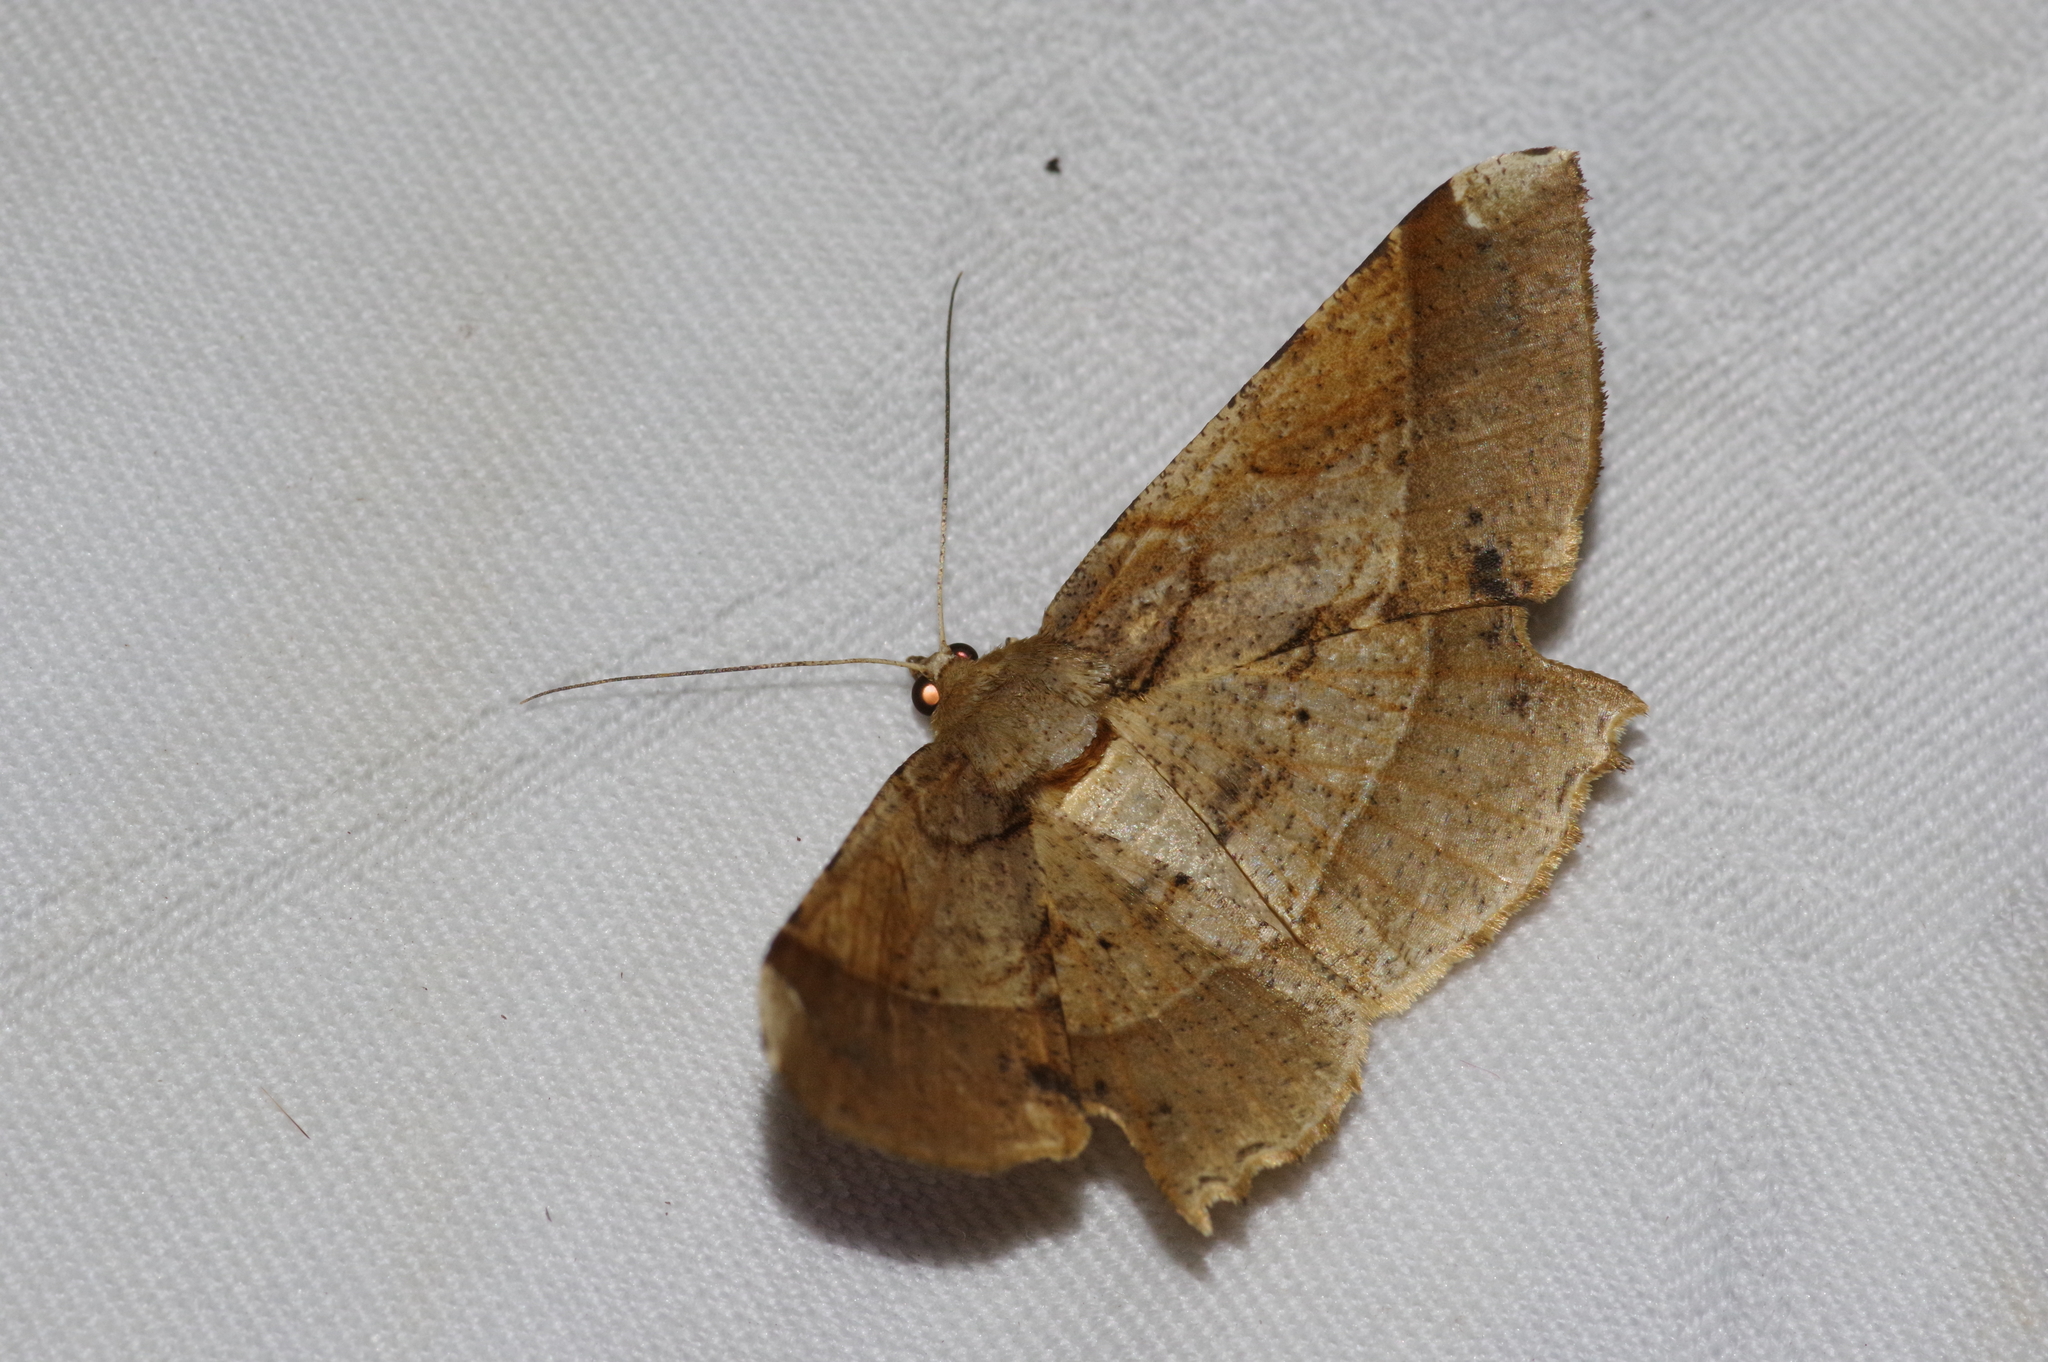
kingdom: Animalia
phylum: Arthropoda
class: Insecta
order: Lepidoptera
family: Geometridae
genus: Krananda
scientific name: Krananda latimarginaria
